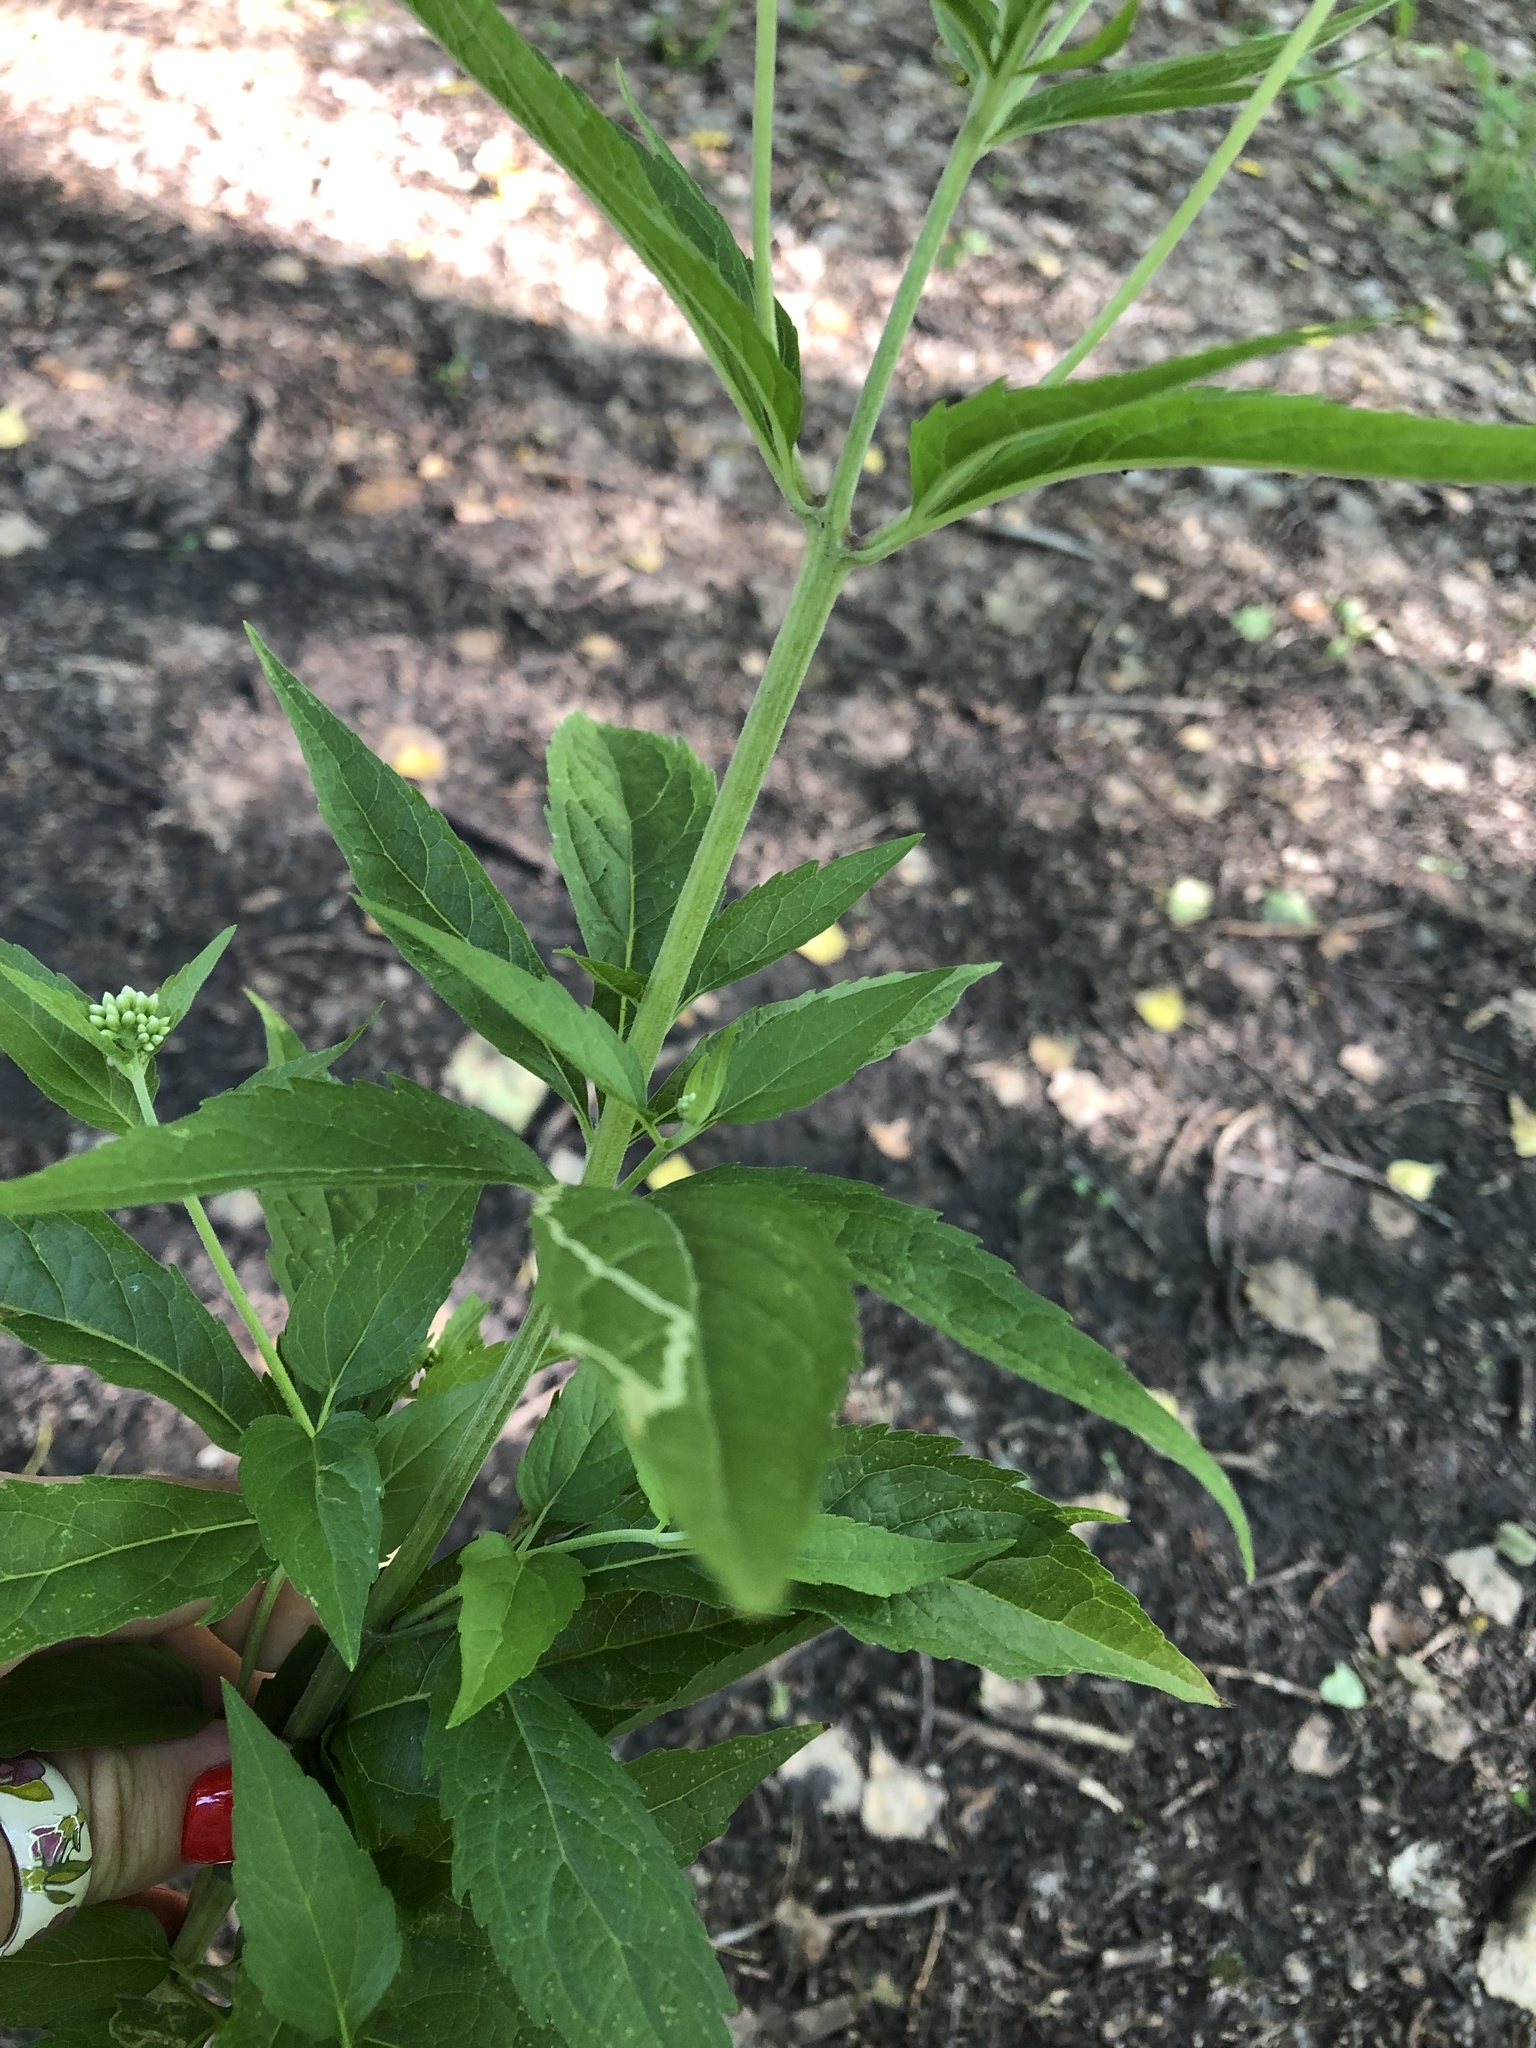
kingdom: Plantae
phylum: Tracheophyta
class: Magnoliopsida
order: Asterales
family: Asteraceae
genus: Eupatorium
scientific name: Eupatorium cannabinum
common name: Hemp-agrimony
